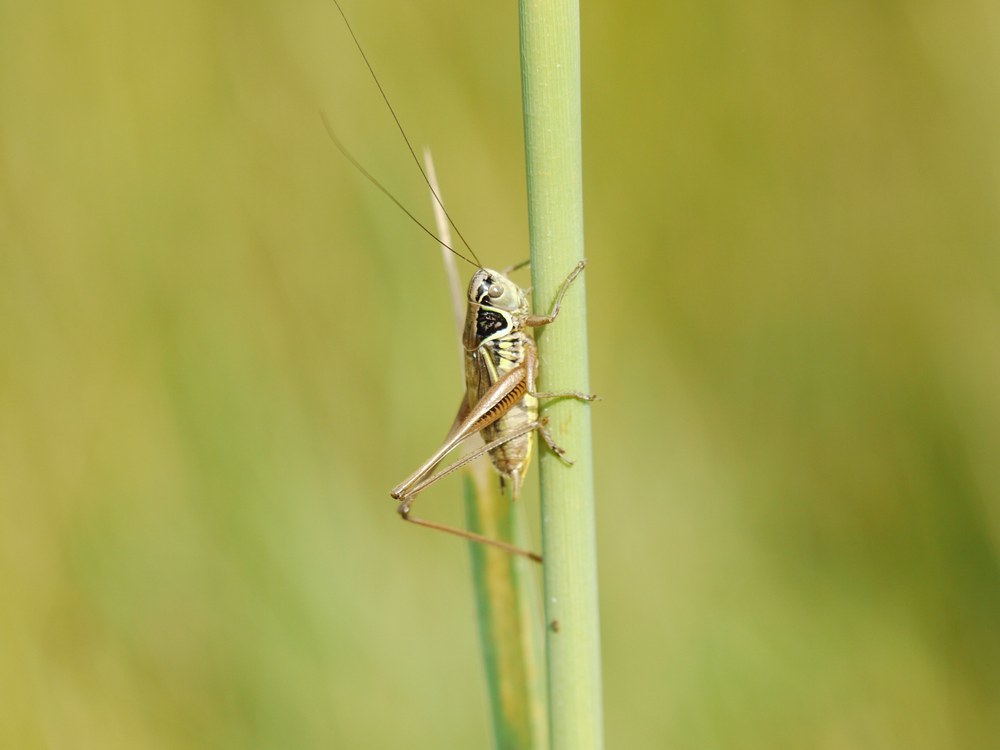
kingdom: Animalia
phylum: Arthropoda
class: Insecta
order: Orthoptera
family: Tettigoniidae
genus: Roeseliana
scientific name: Roeseliana roeselii
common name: Roesel's bush cricket
